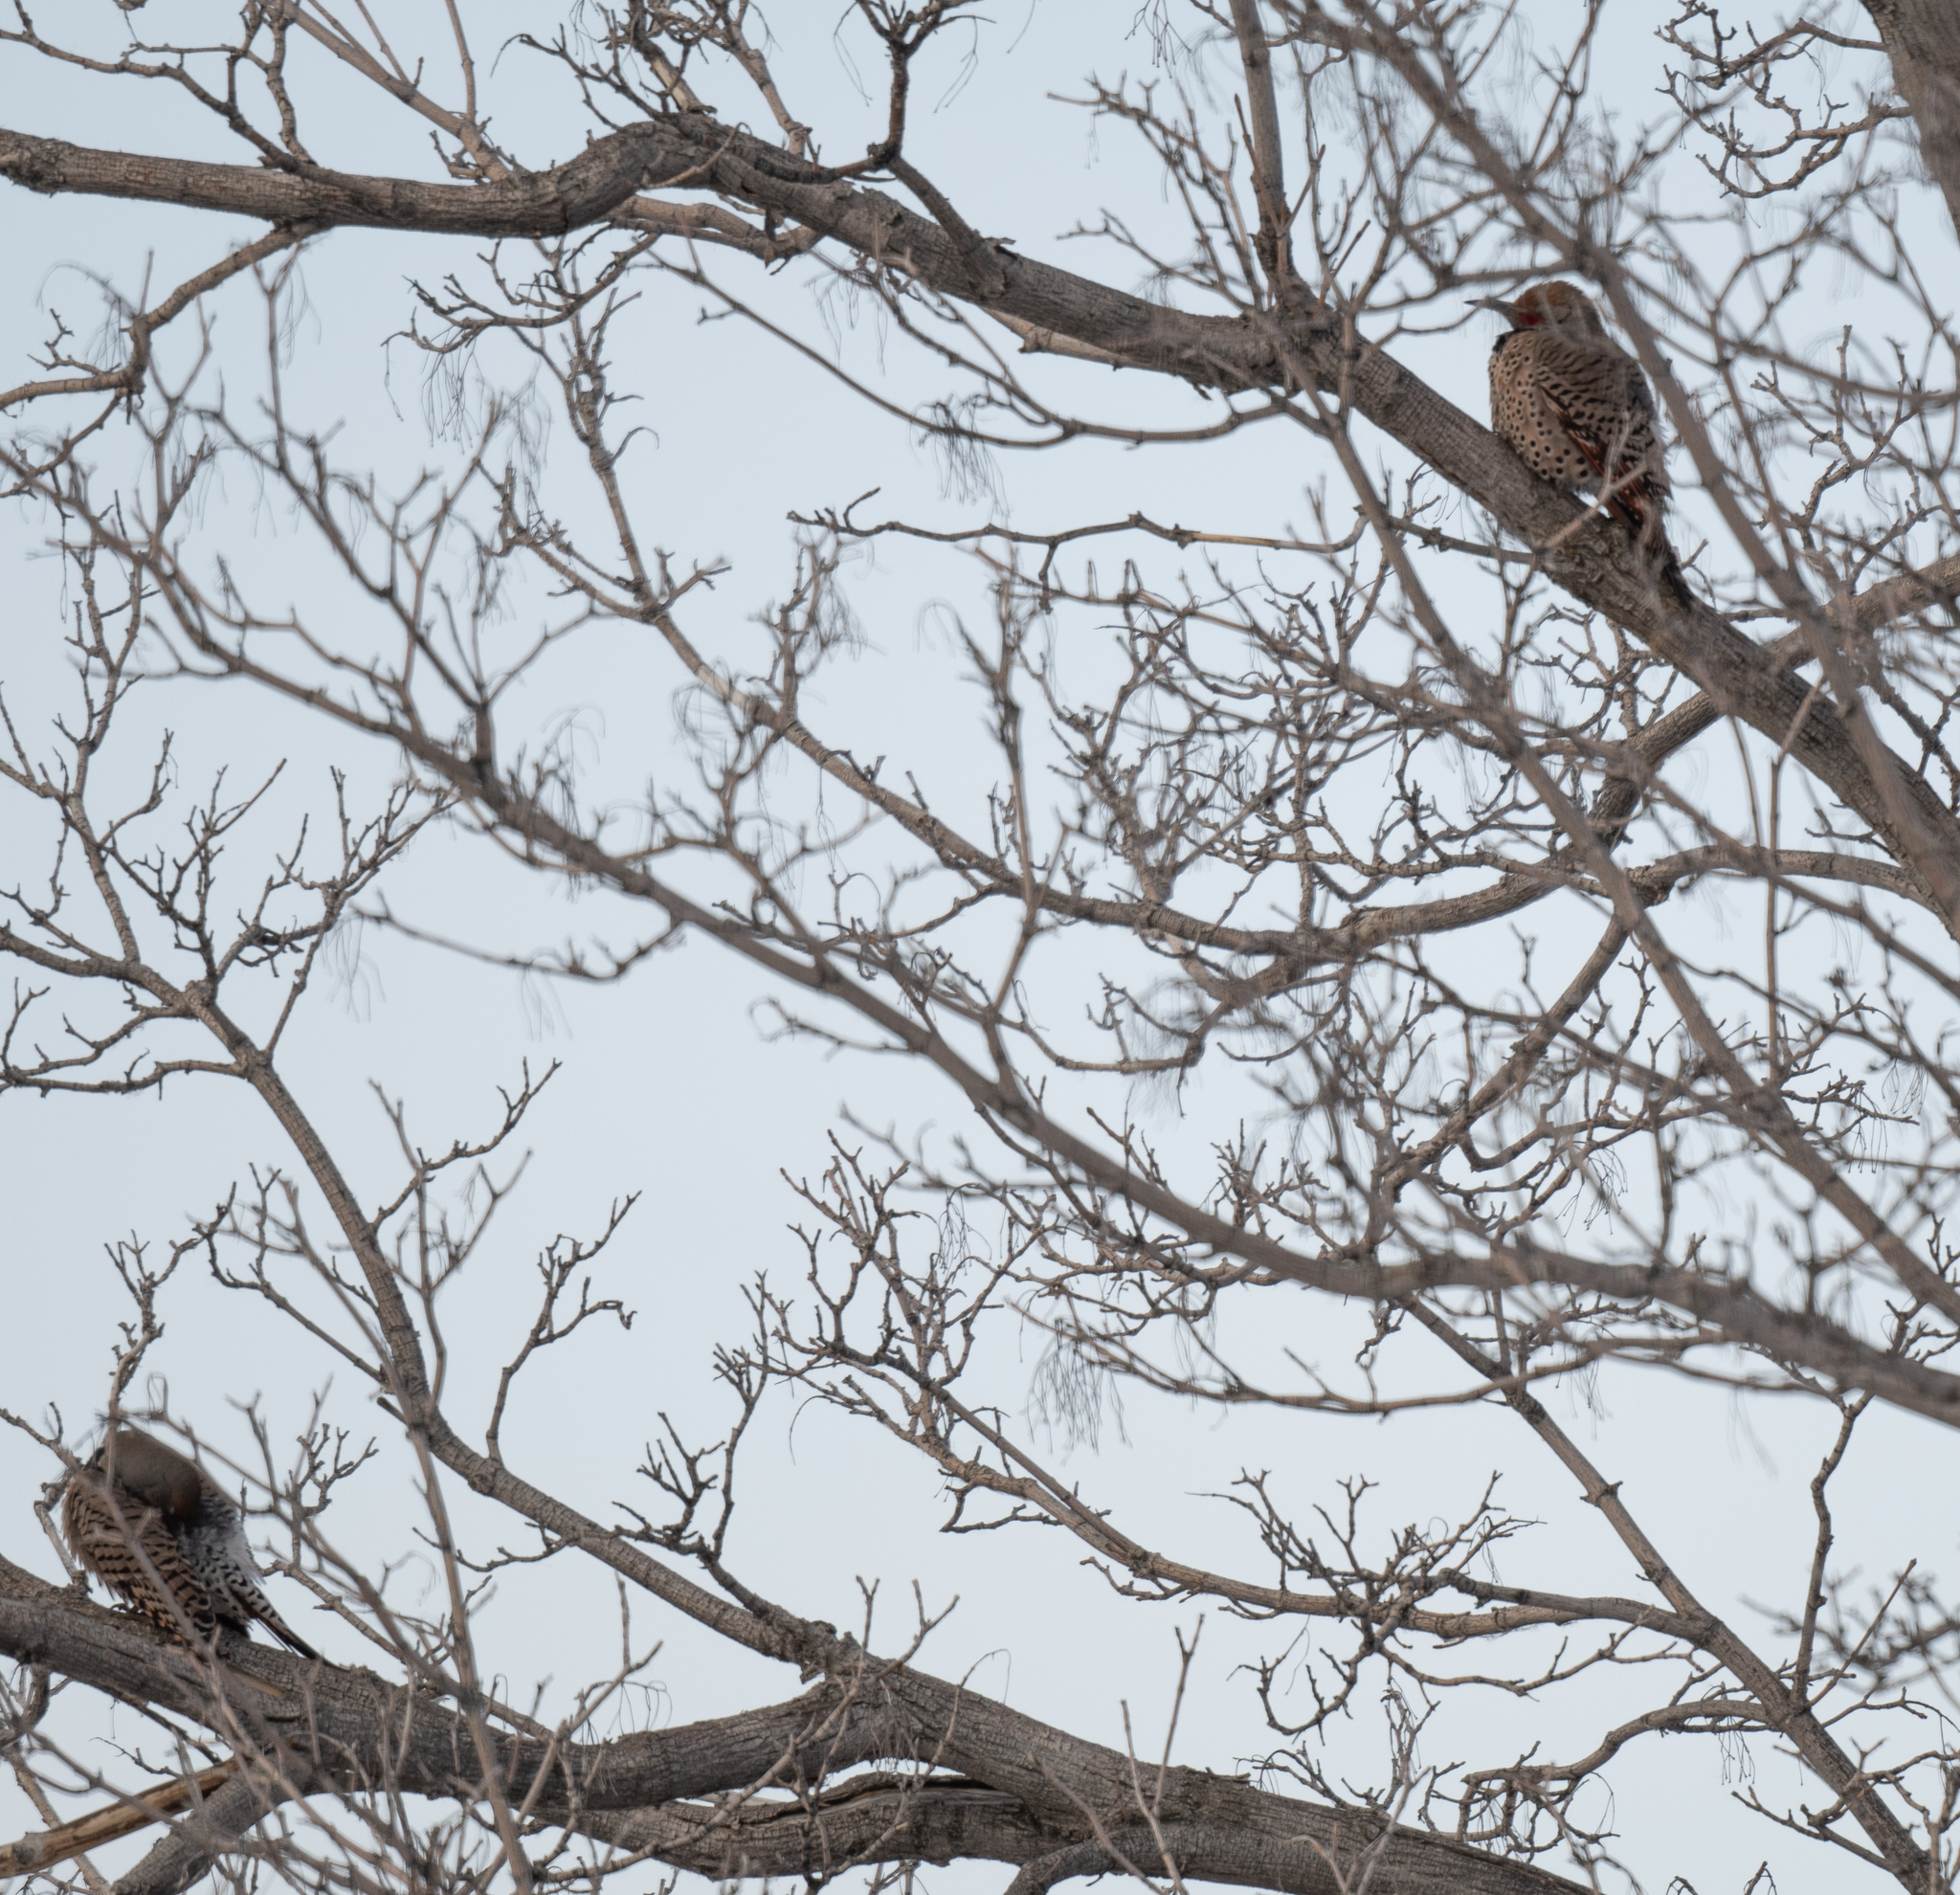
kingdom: Animalia
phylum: Chordata
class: Aves
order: Piciformes
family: Picidae
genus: Colaptes
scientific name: Colaptes auratus
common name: Northern flicker
